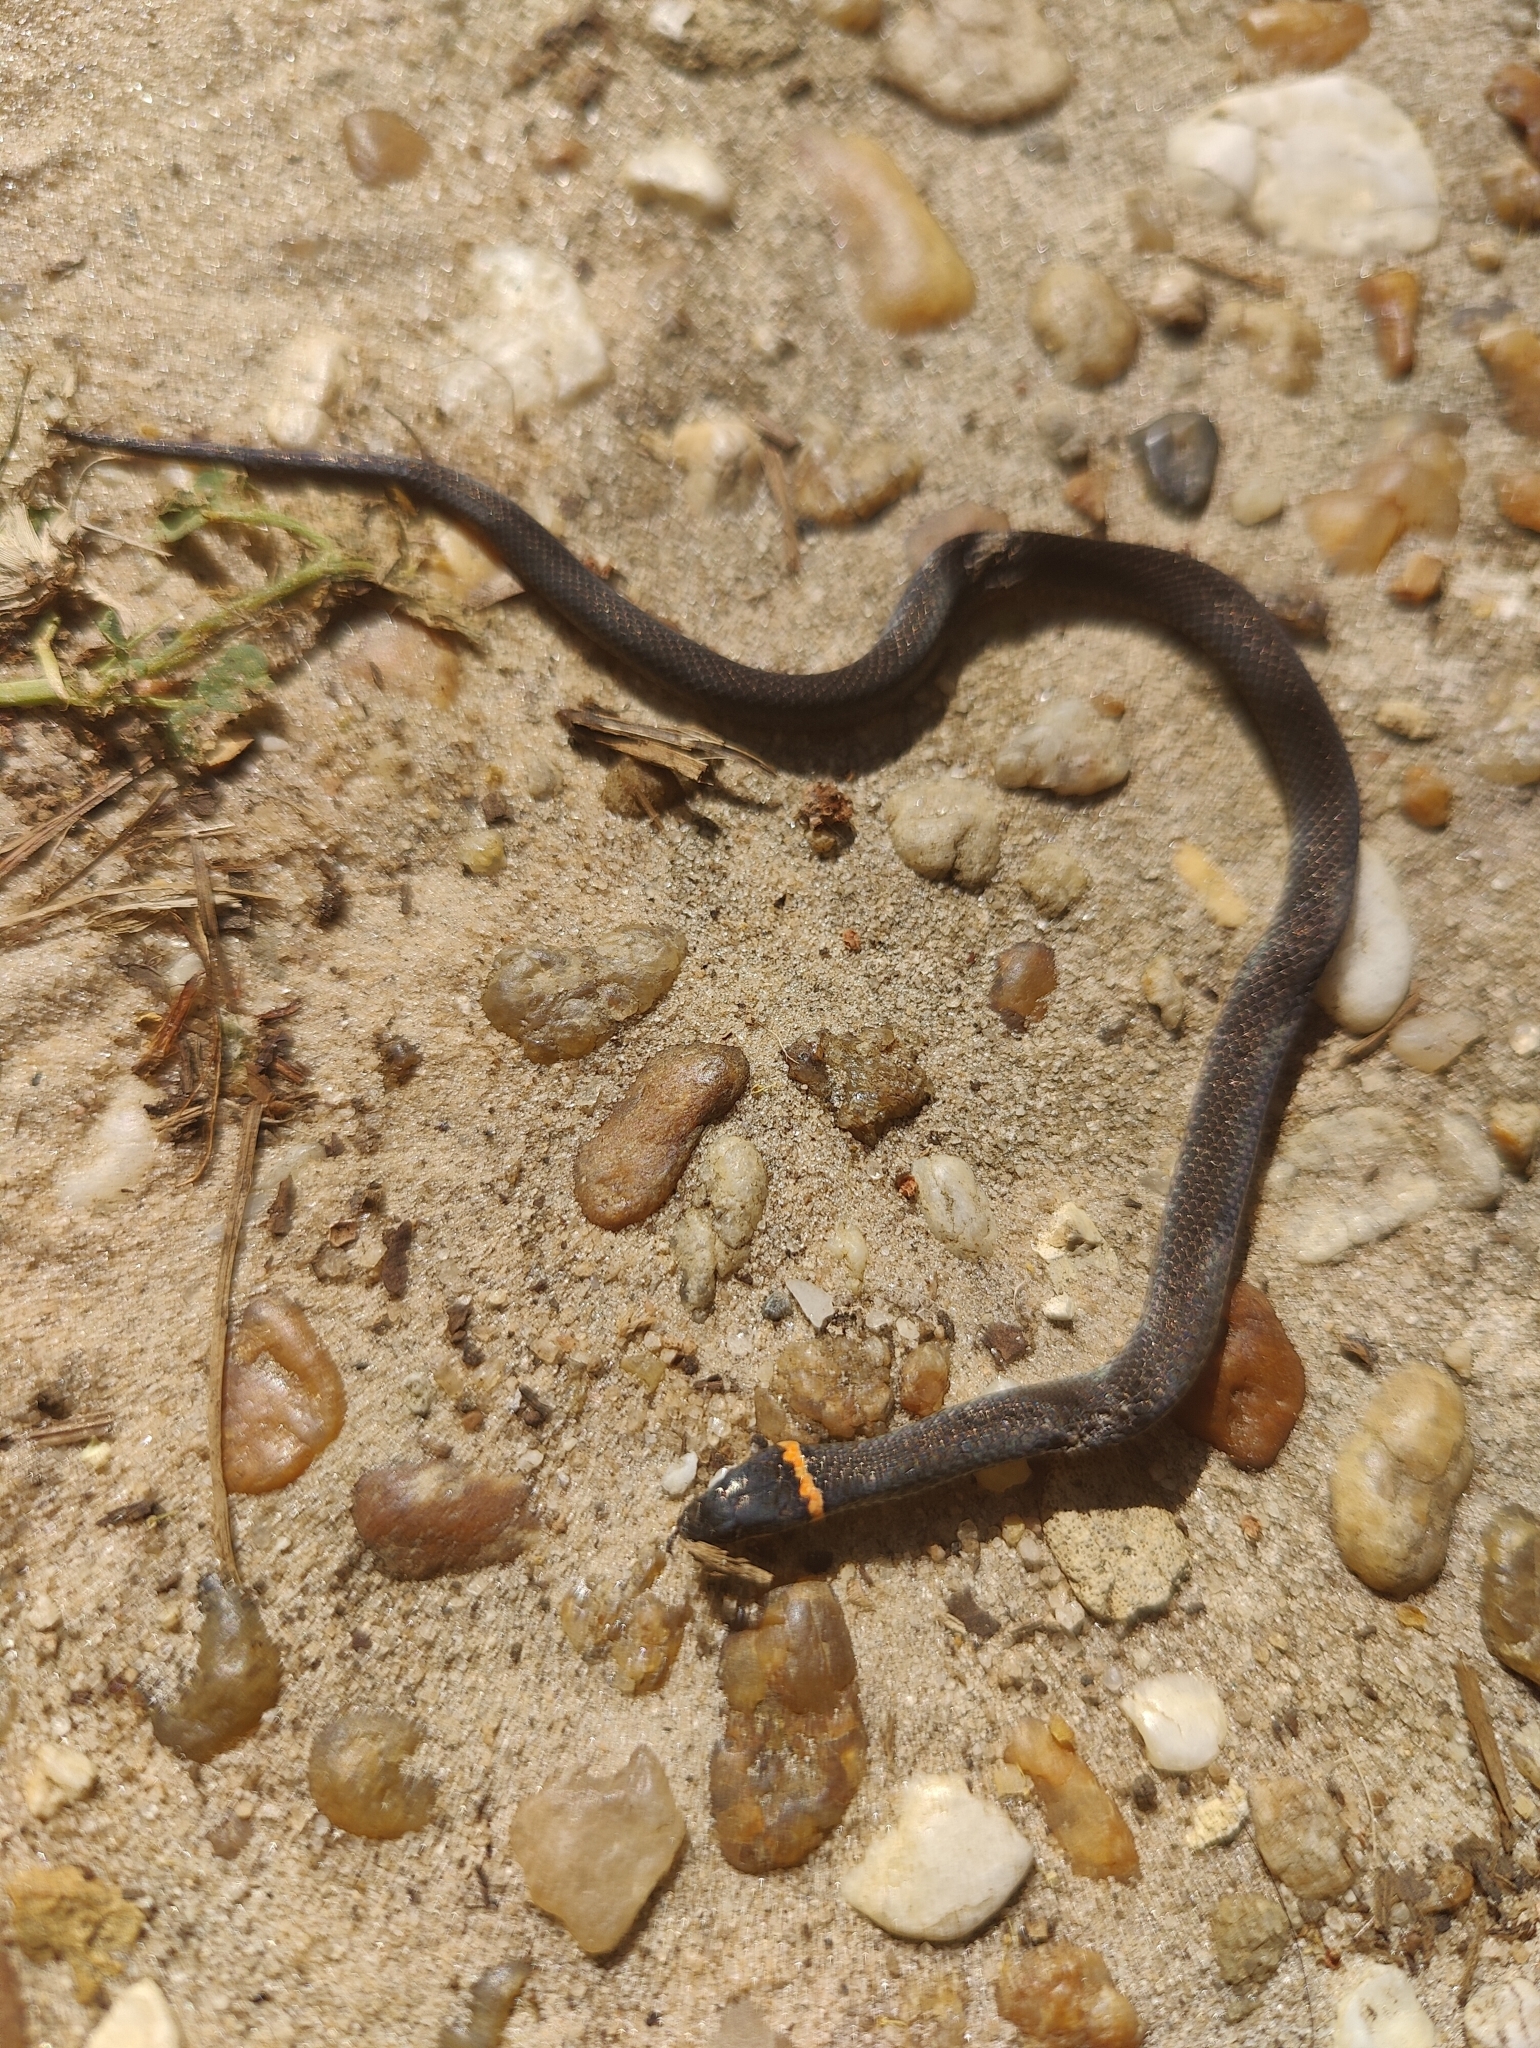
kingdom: Animalia
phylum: Chordata
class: Squamata
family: Colubridae
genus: Diadophis
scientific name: Diadophis punctatus
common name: Ringneck snake
